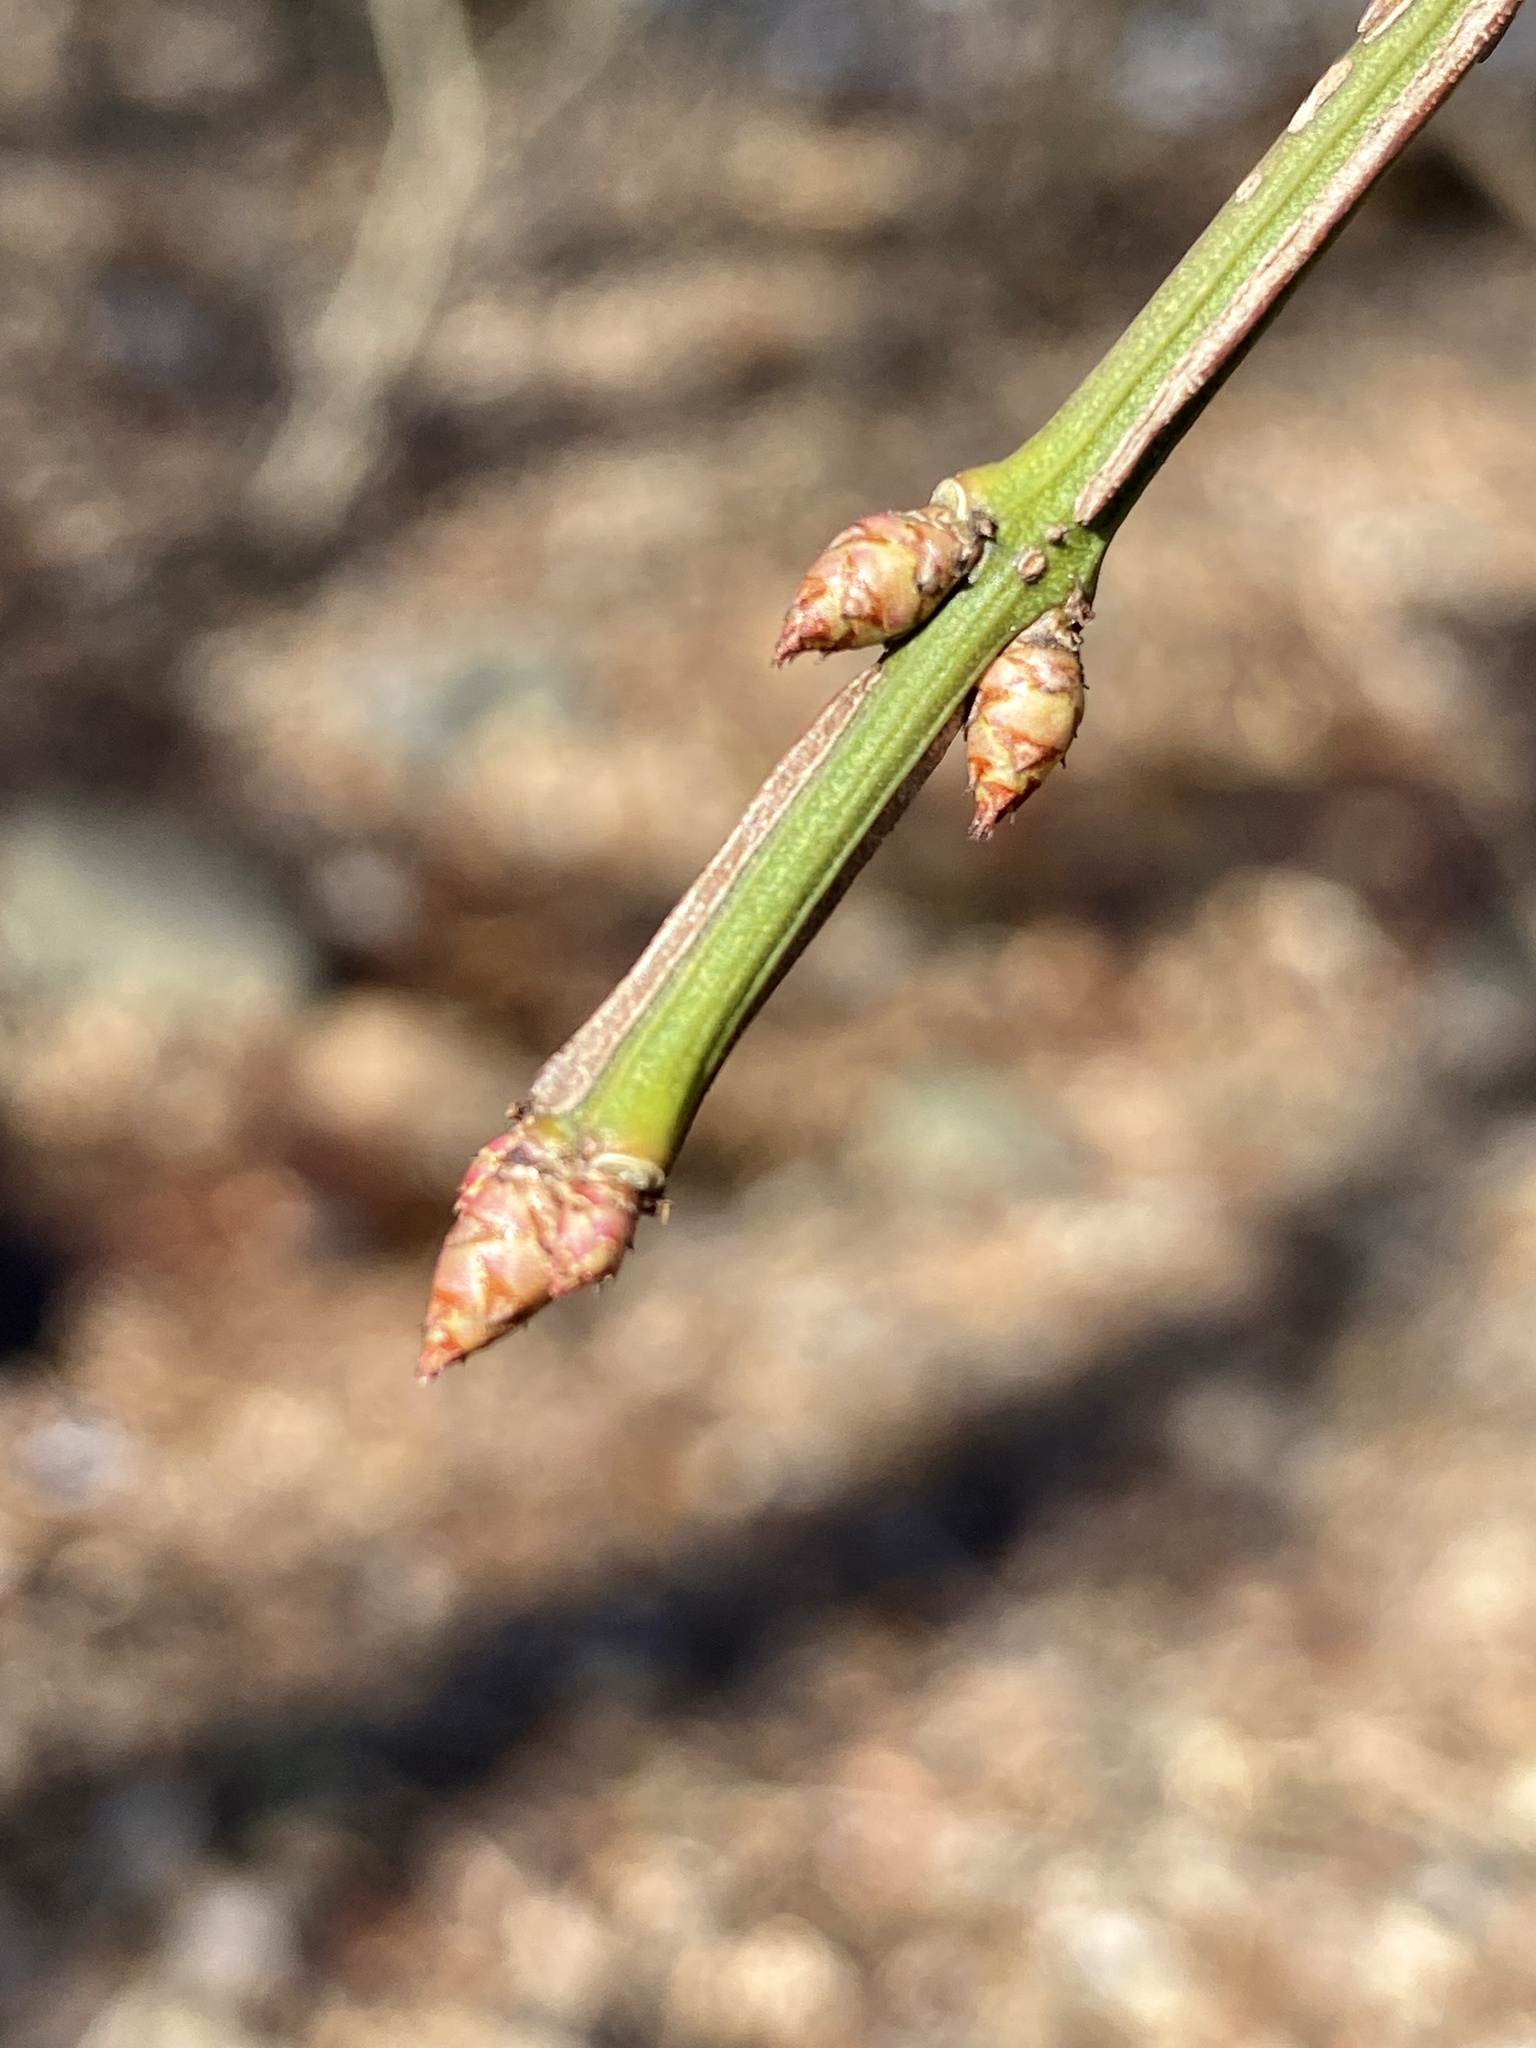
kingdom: Plantae
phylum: Tracheophyta
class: Magnoliopsida
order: Celastrales
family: Celastraceae
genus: Euonymus
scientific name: Euonymus alatus
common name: Winged euonymus
